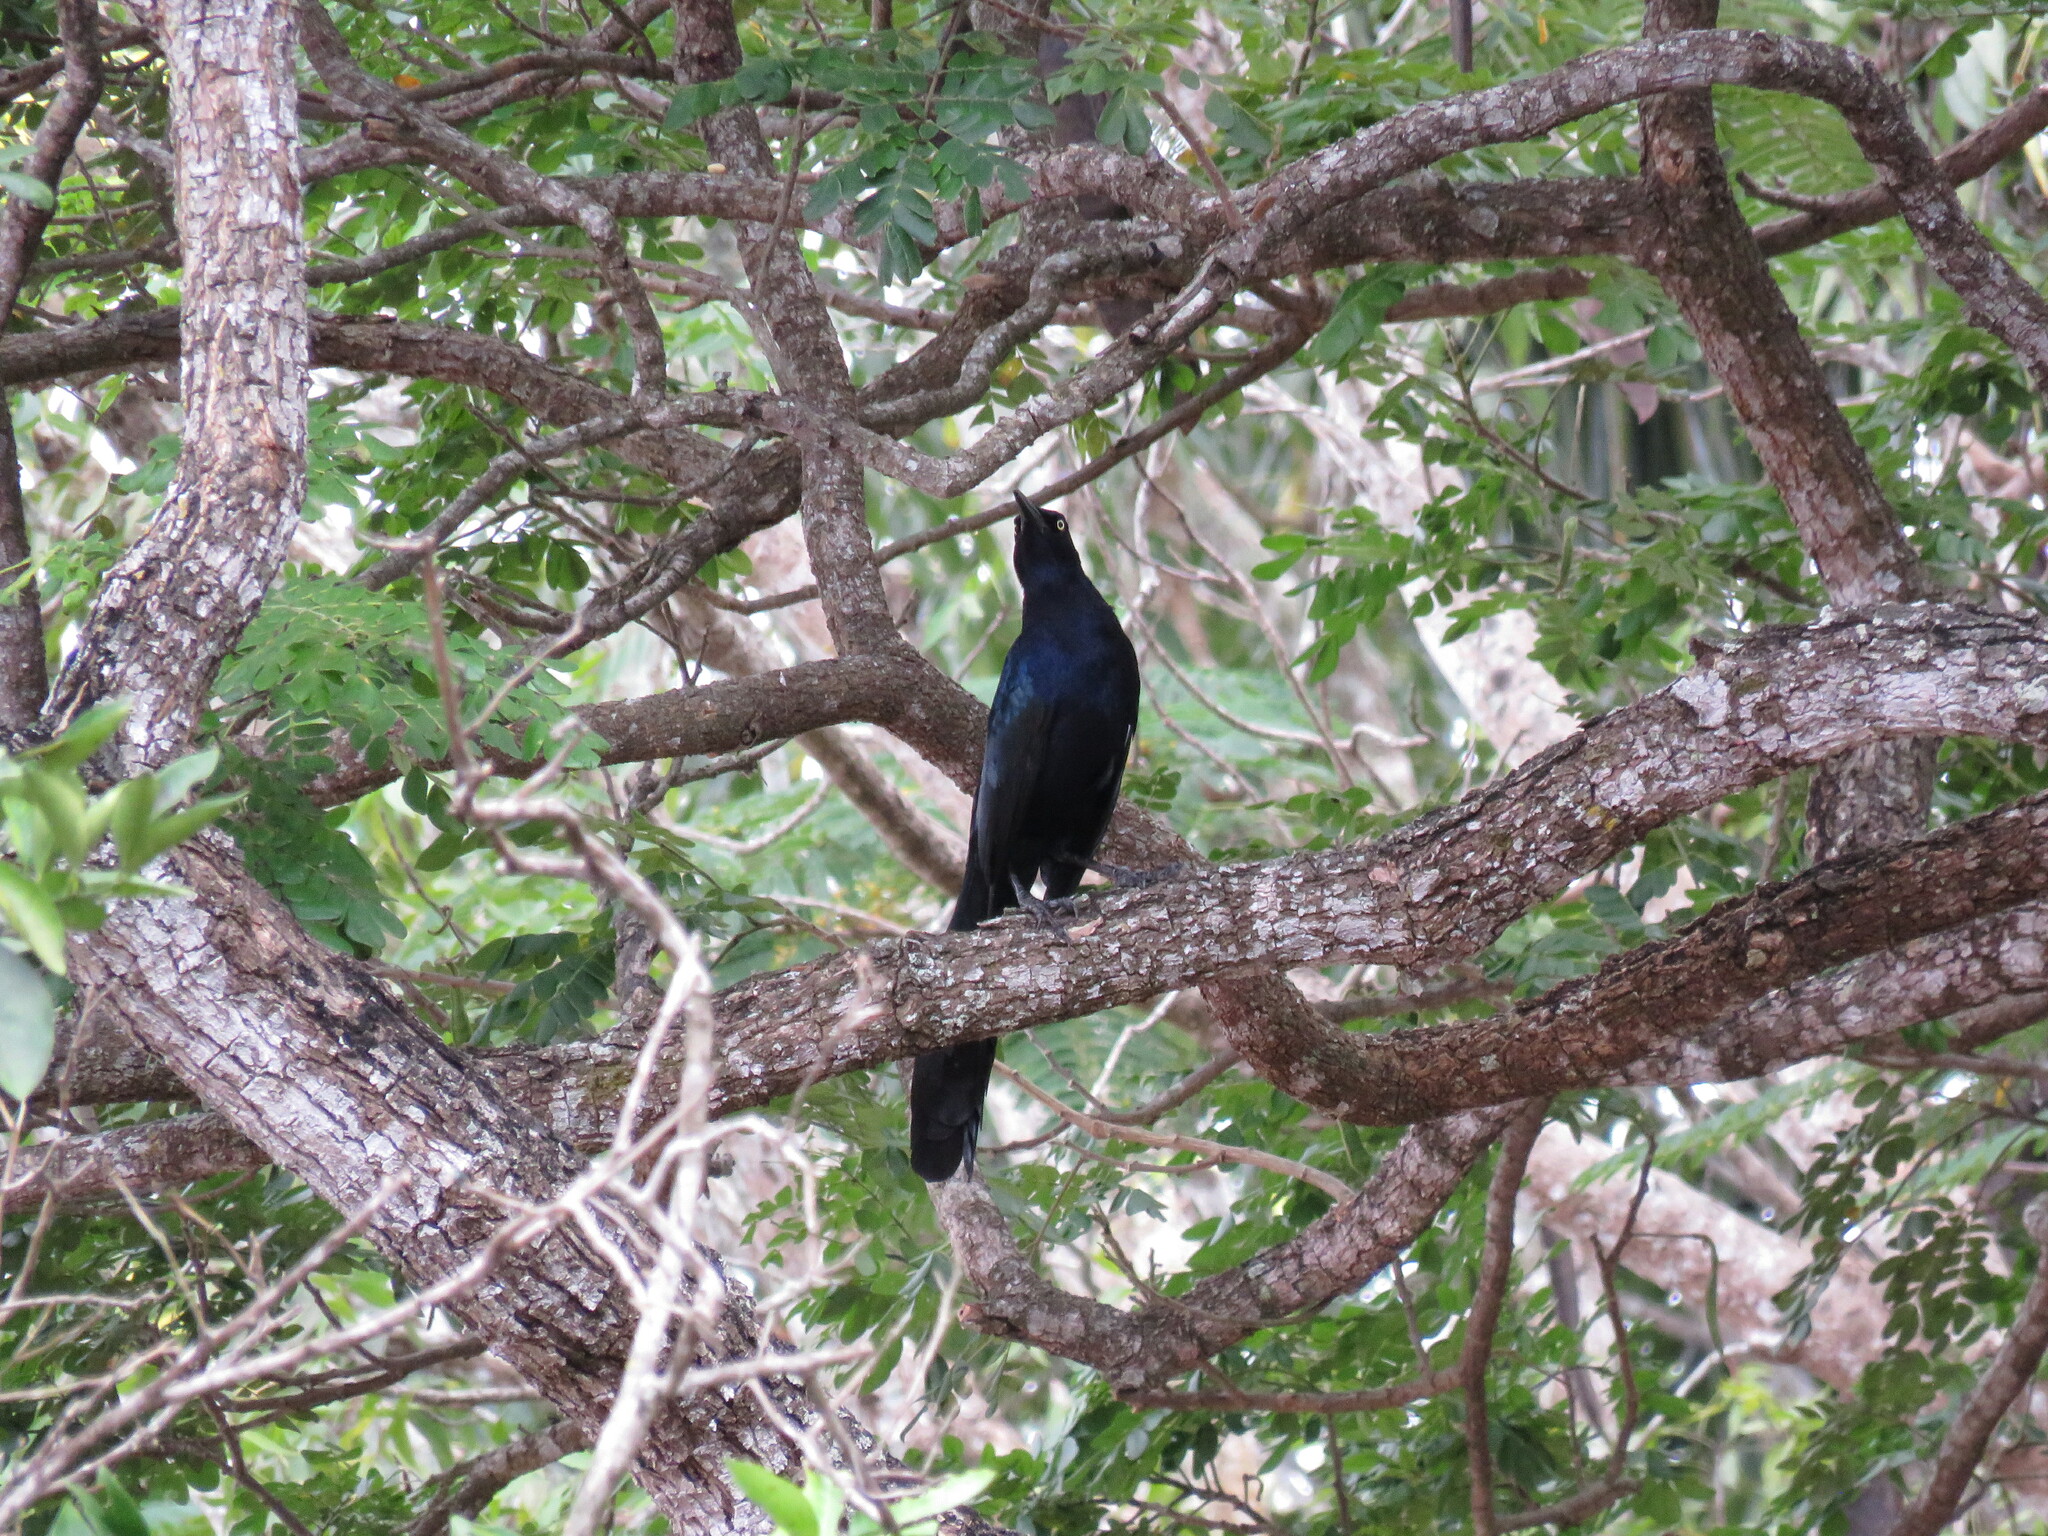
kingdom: Animalia
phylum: Chordata
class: Aves
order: Passeriformes
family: Icteridae
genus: Quiscalus
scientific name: Quiscalus mexicanus
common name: Great-tailed grackle
